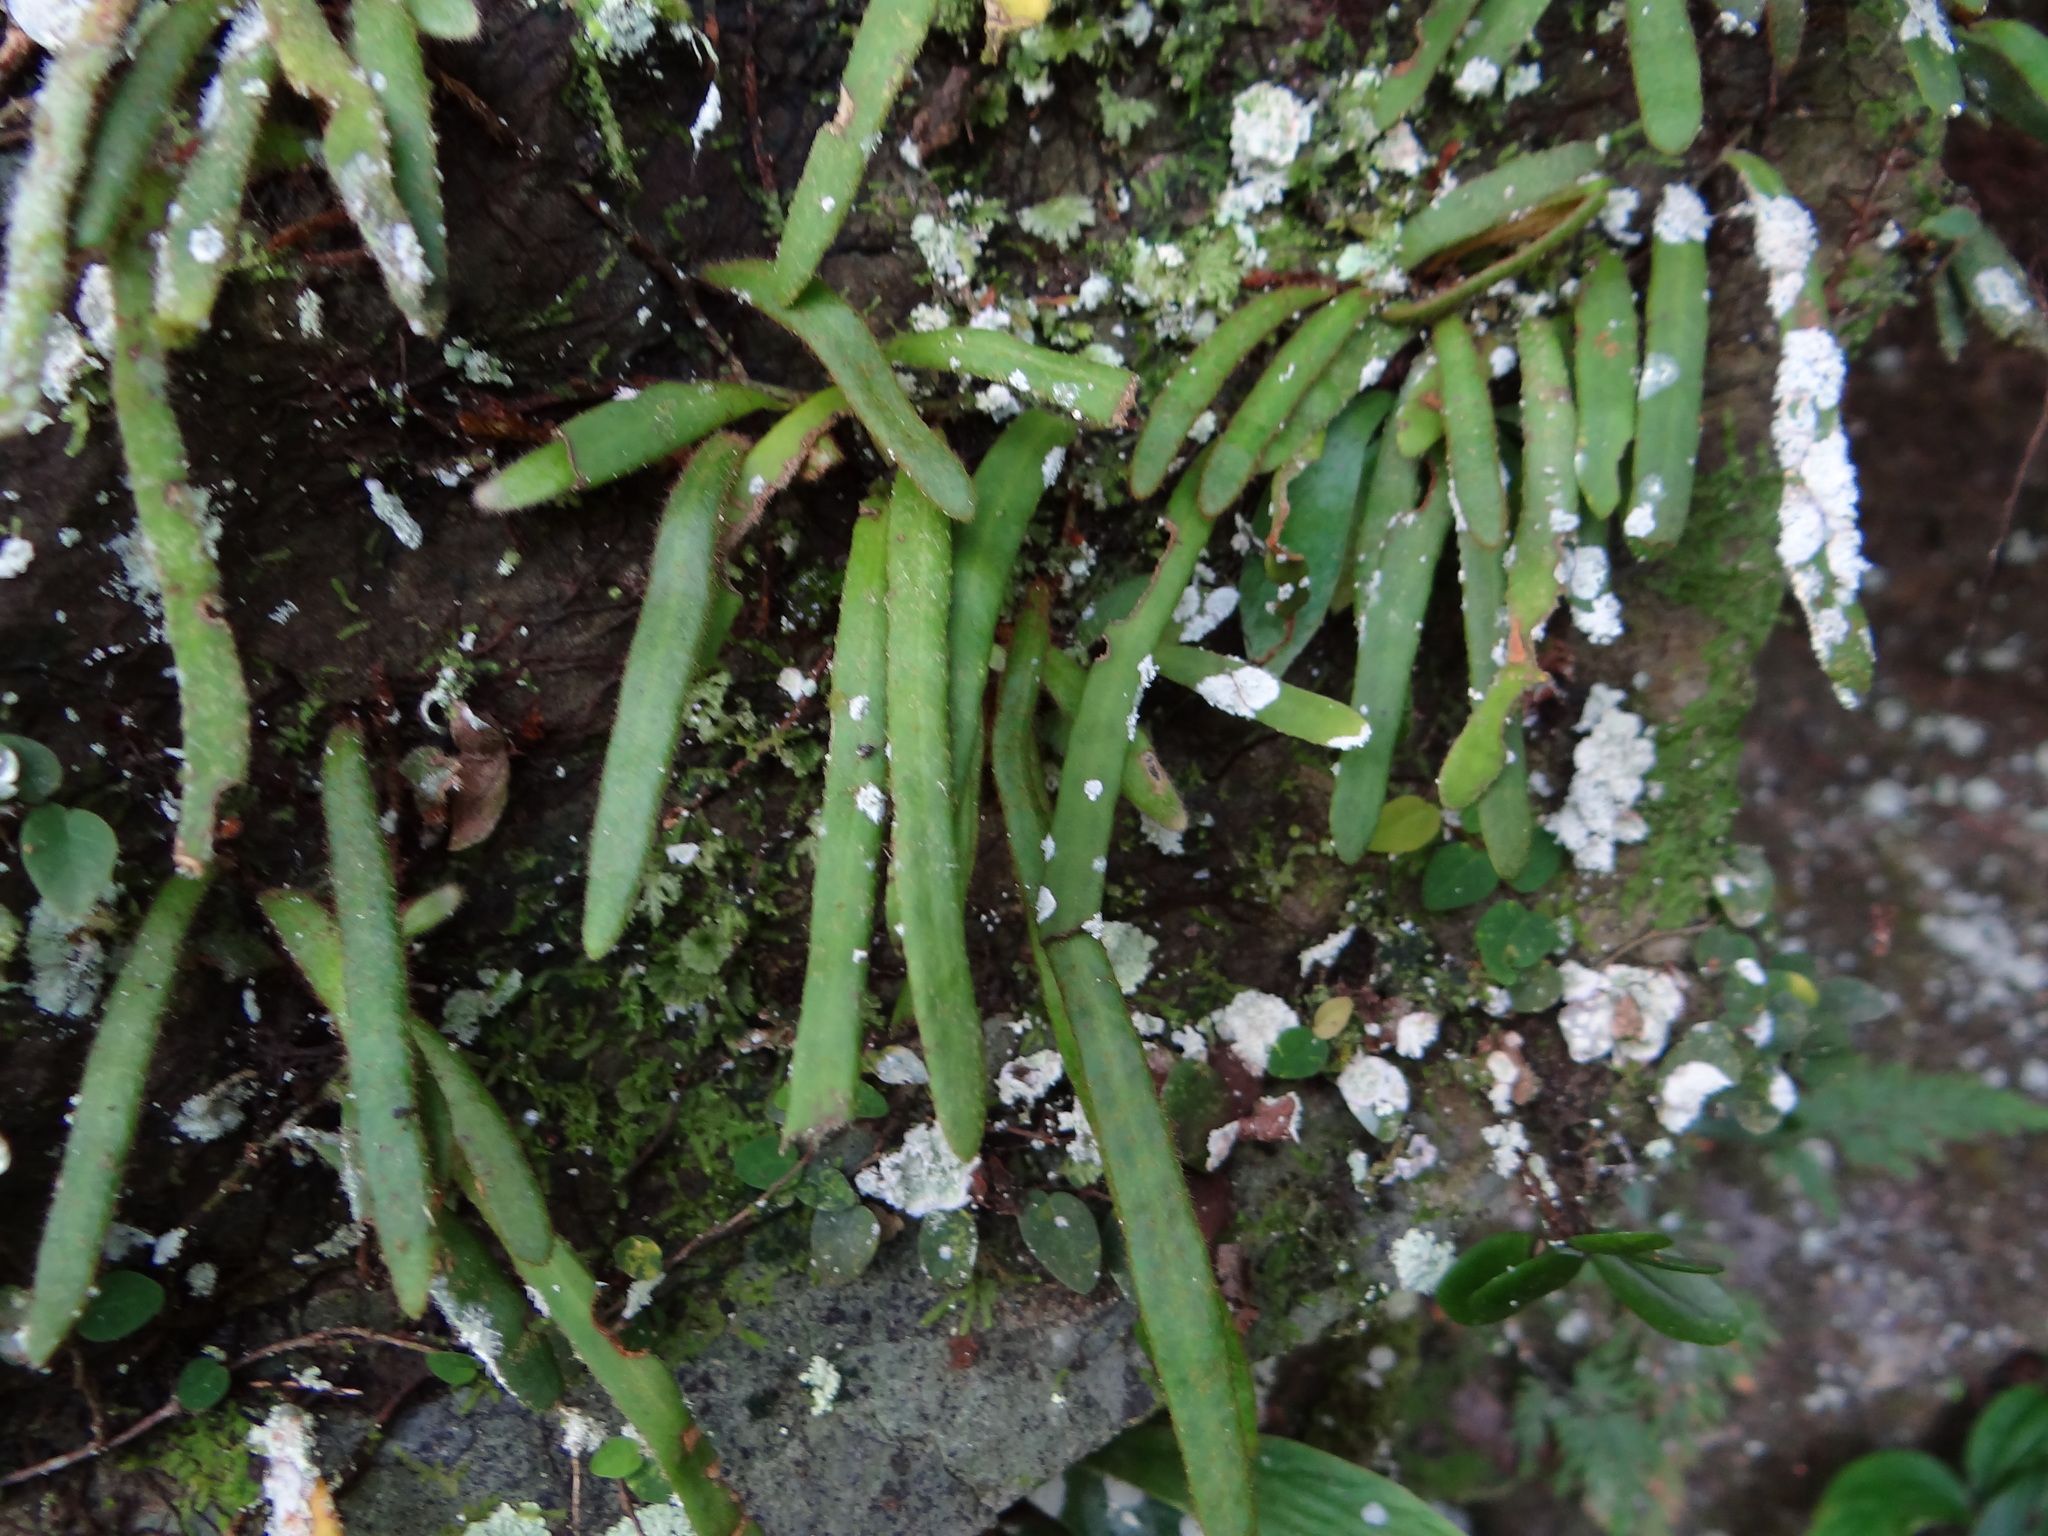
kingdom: Plantae
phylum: Tracheophyta
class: Polypodiopsida
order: Polypodiales
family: Polypodiaceae
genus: Pyrrosia
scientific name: Pyrrosia linearifolia
